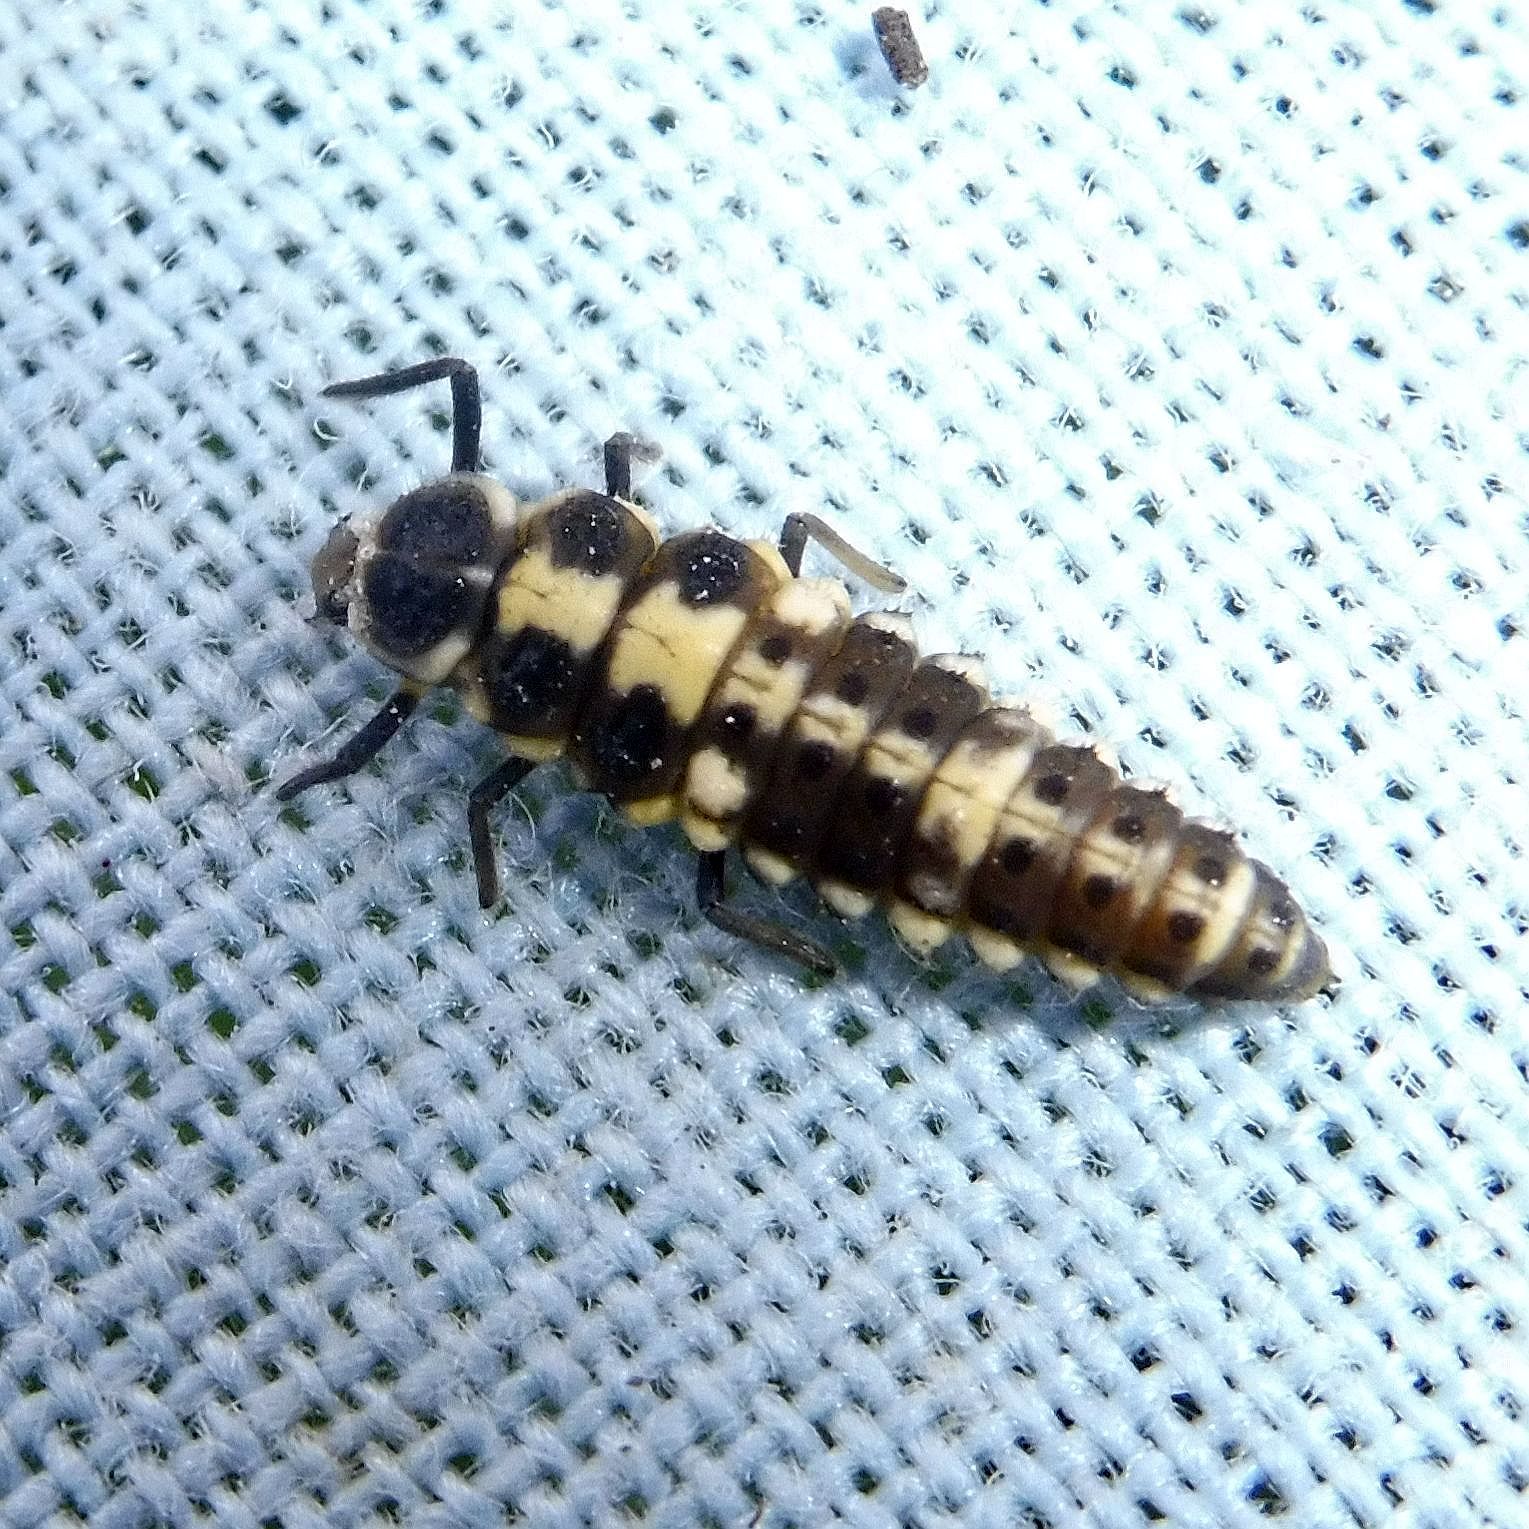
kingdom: Animalia
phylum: Arthropoda
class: Insecta
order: Coleoptera
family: Coccinellidae
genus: Propylaea
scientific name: Propylaea quatuordecimpunctata
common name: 14-spotted ladybird beetle
